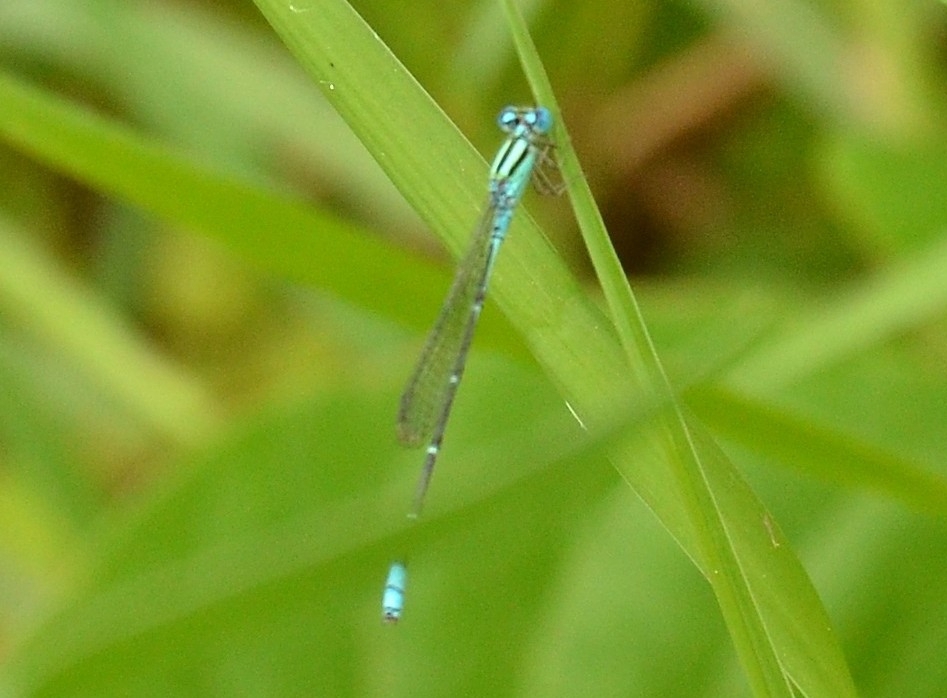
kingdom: Animalia
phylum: Arthropoda
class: Insecta
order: Odonata
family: Coenagrionidae
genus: Pseudagrion
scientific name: Pseudagrion microcephalum
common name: Blue riverdamsel
